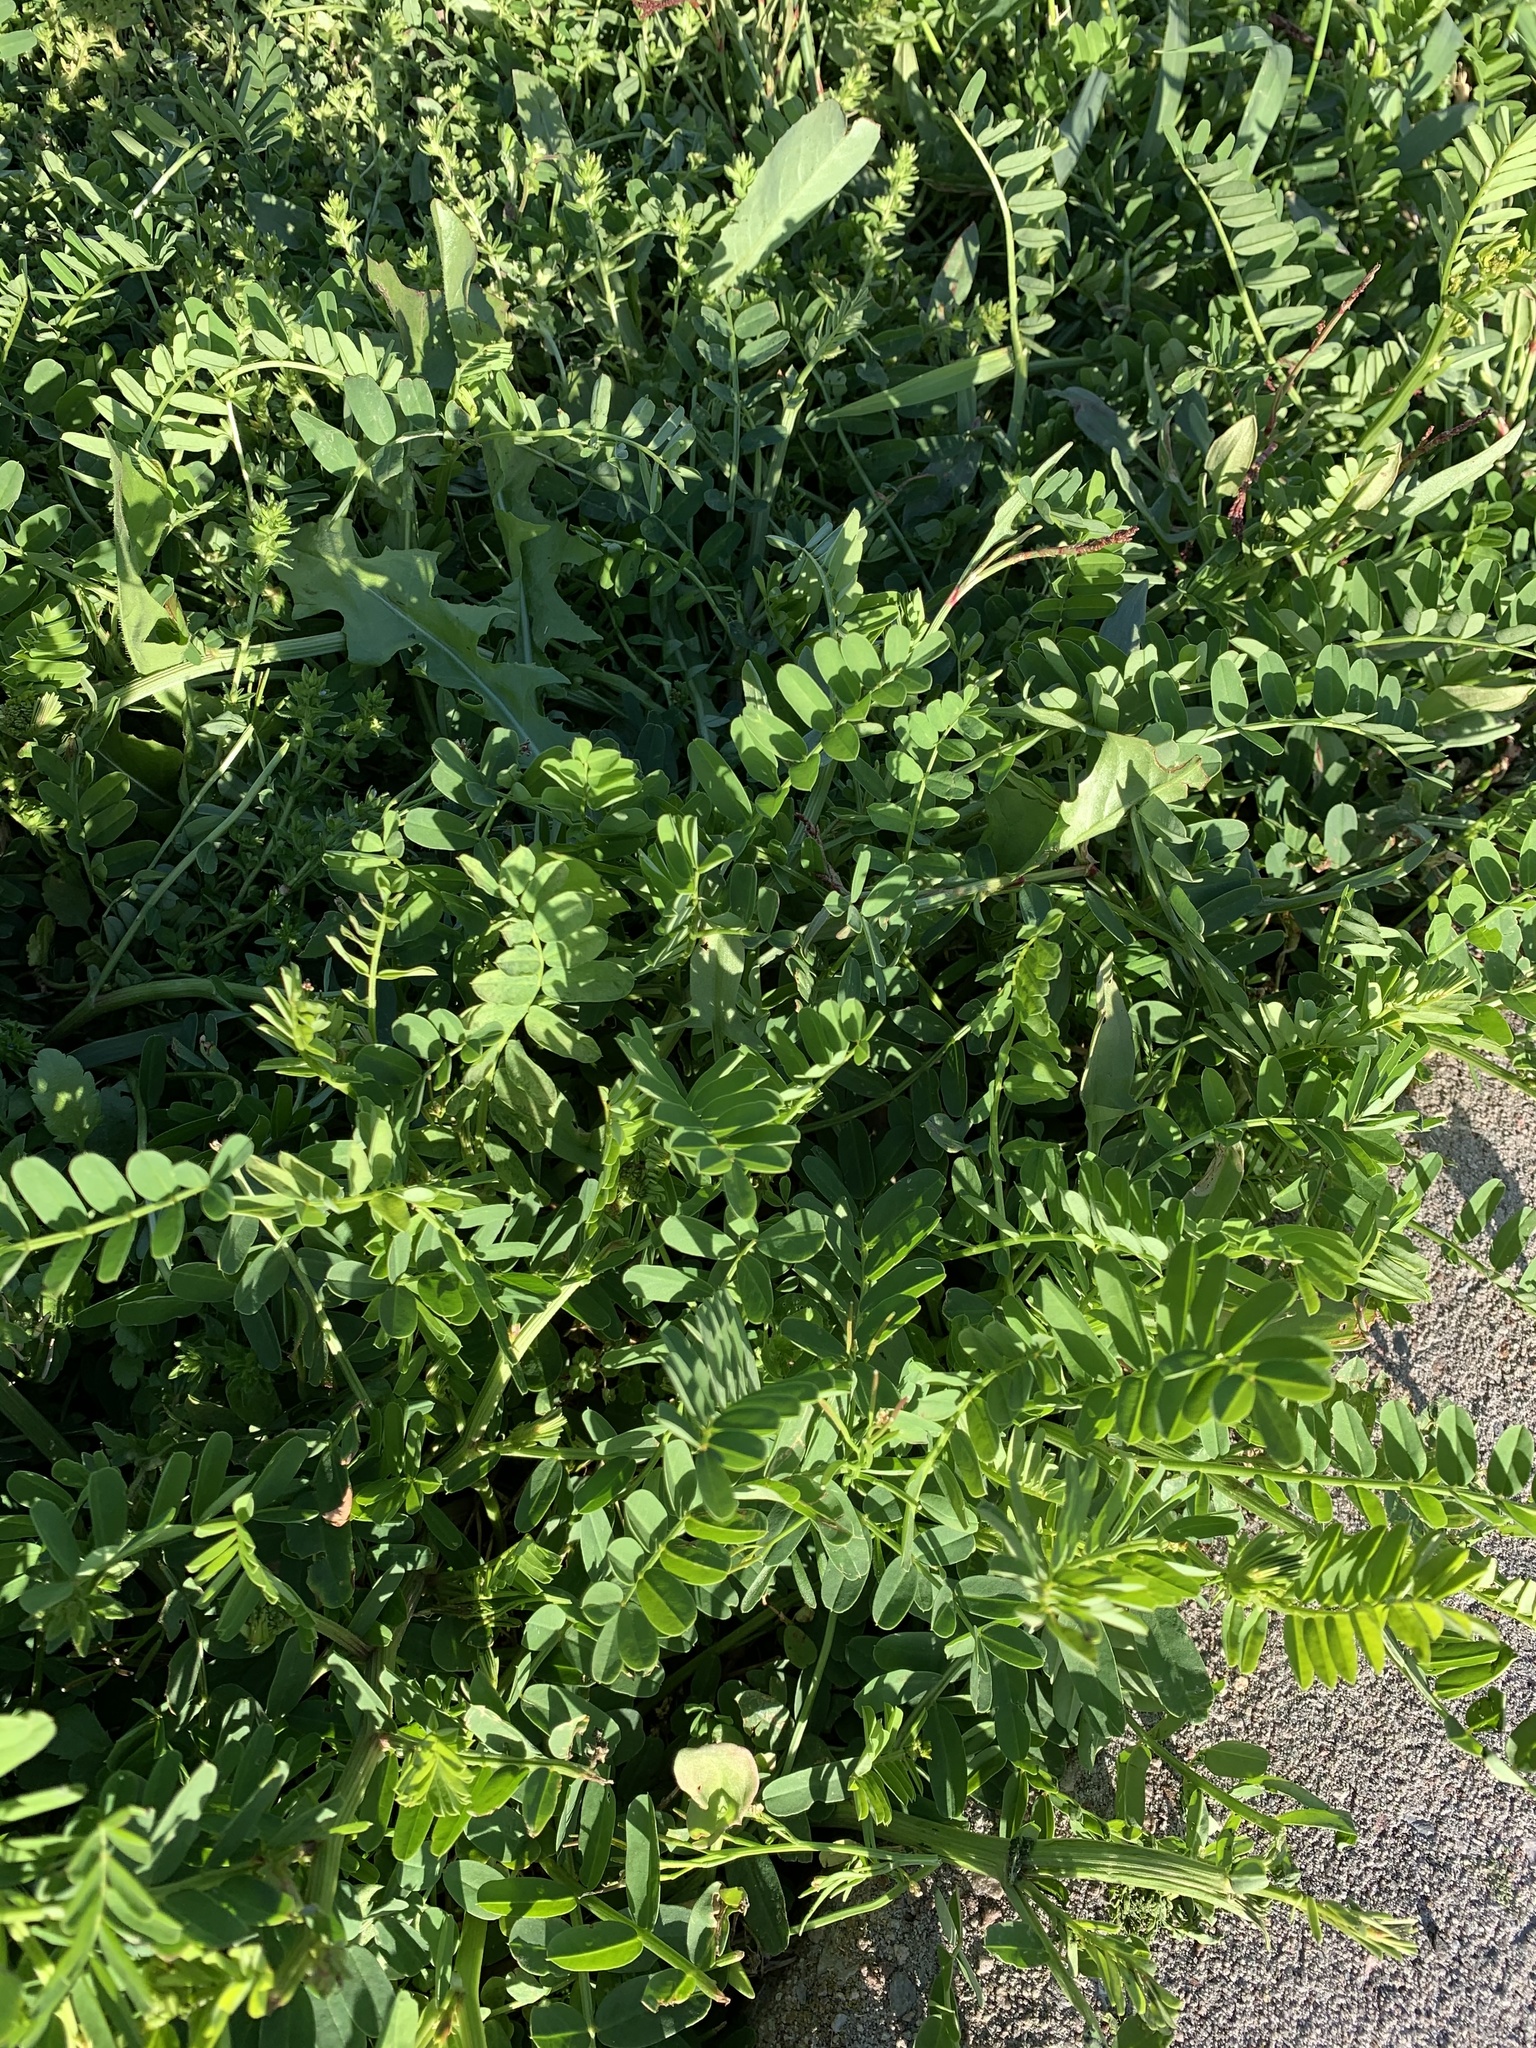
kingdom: Plantae
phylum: Tracheophyta
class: Magnoliopsida
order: Fabales
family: Fabaceae
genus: Coronilla
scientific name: Coronilla varia
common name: Crownvetch
